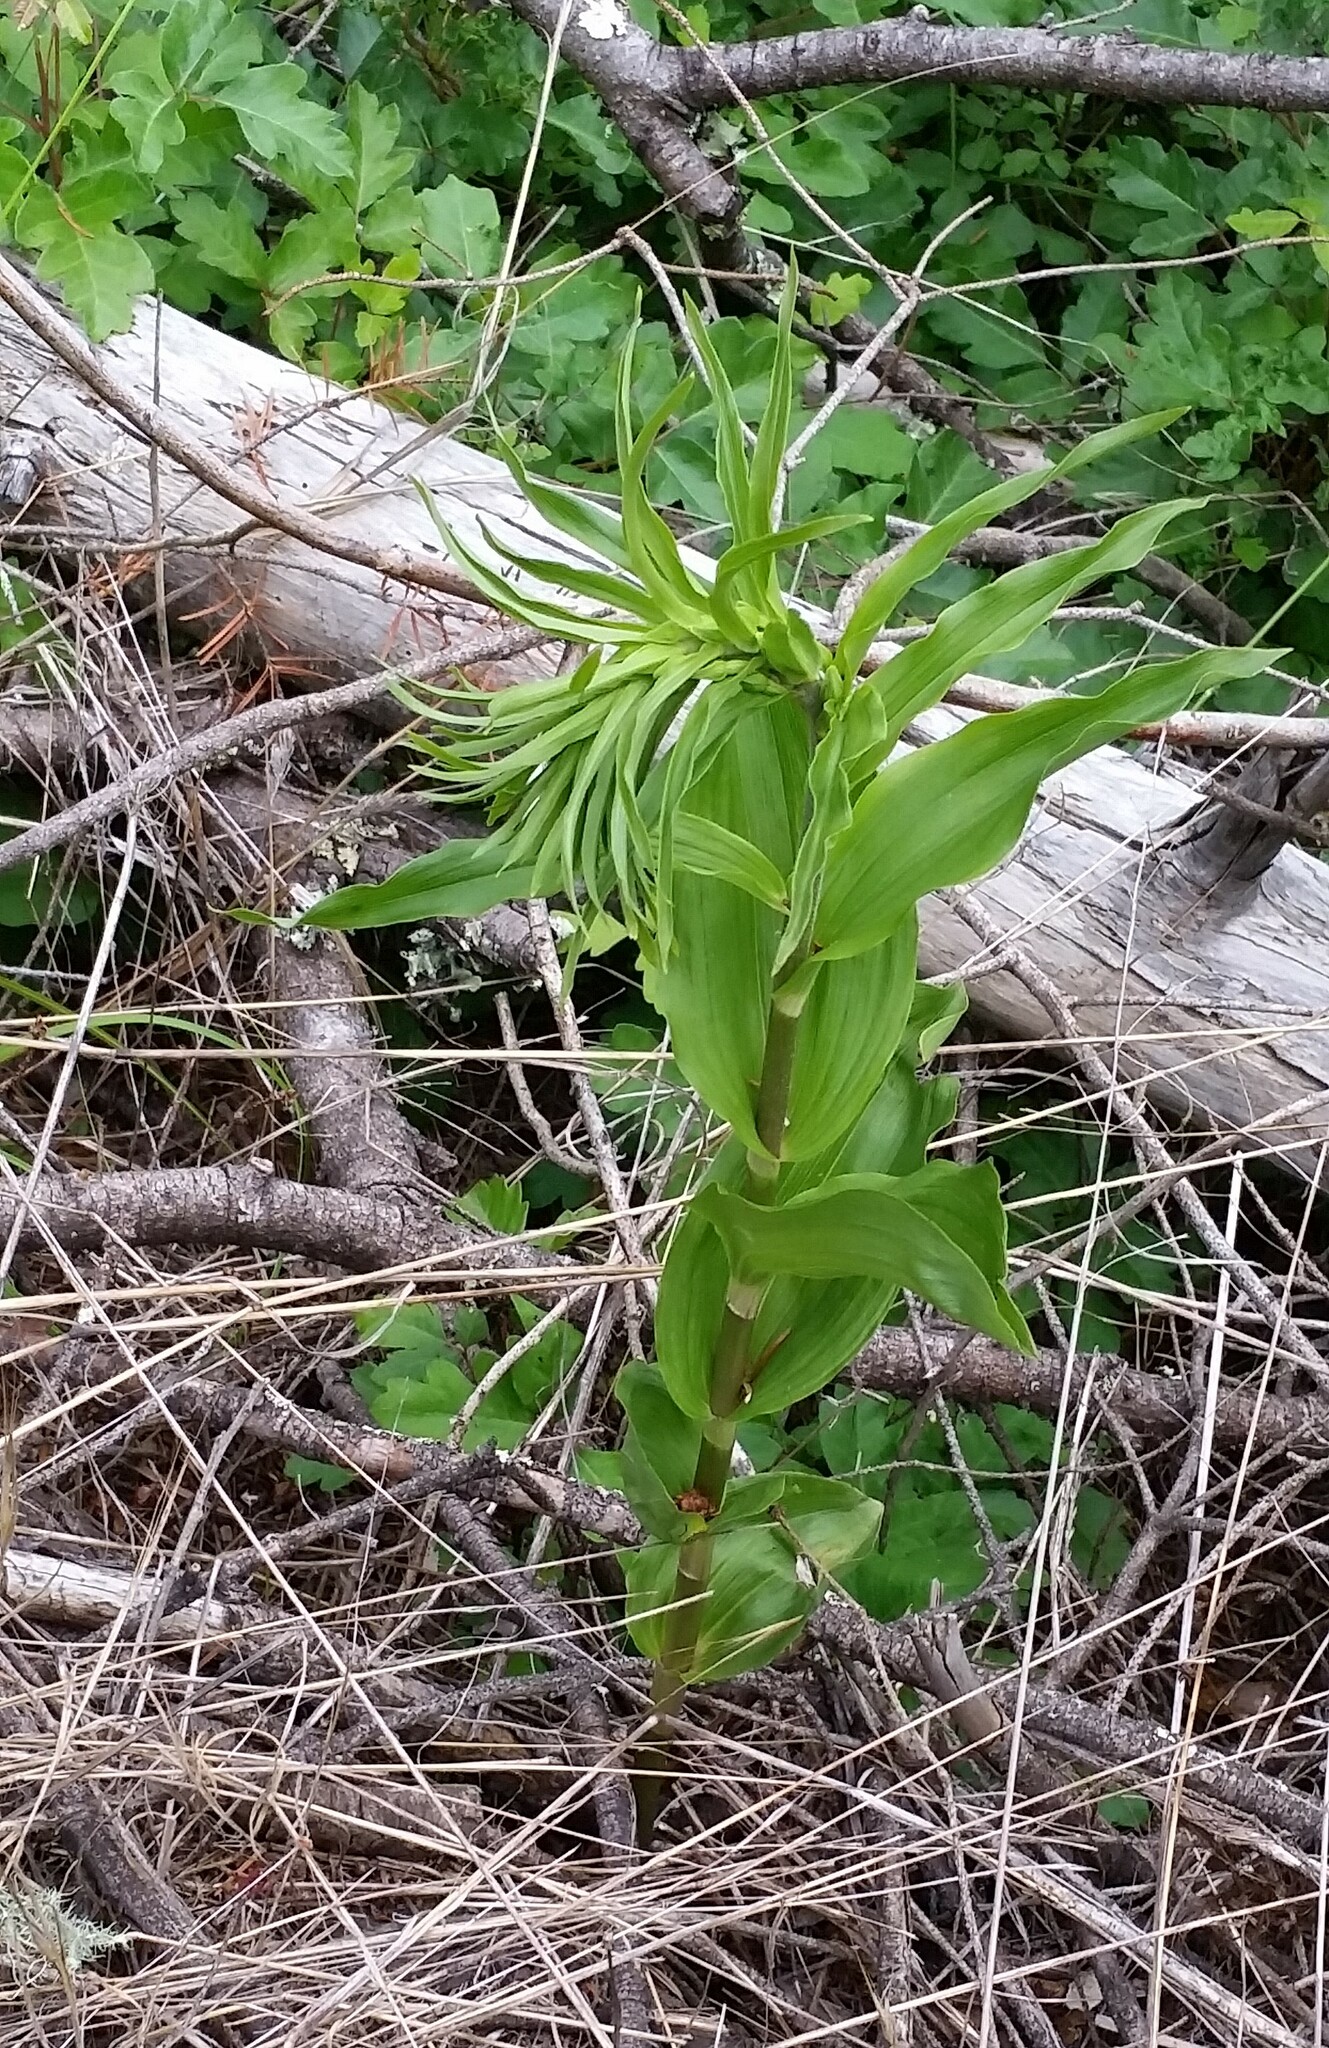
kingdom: Plantae
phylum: Tracheophyta
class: Liliopsida
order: Asparagales
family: Orchidaceae
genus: Epipactis
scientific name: Epipactis helleborine
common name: Broad-leaved helleborine
